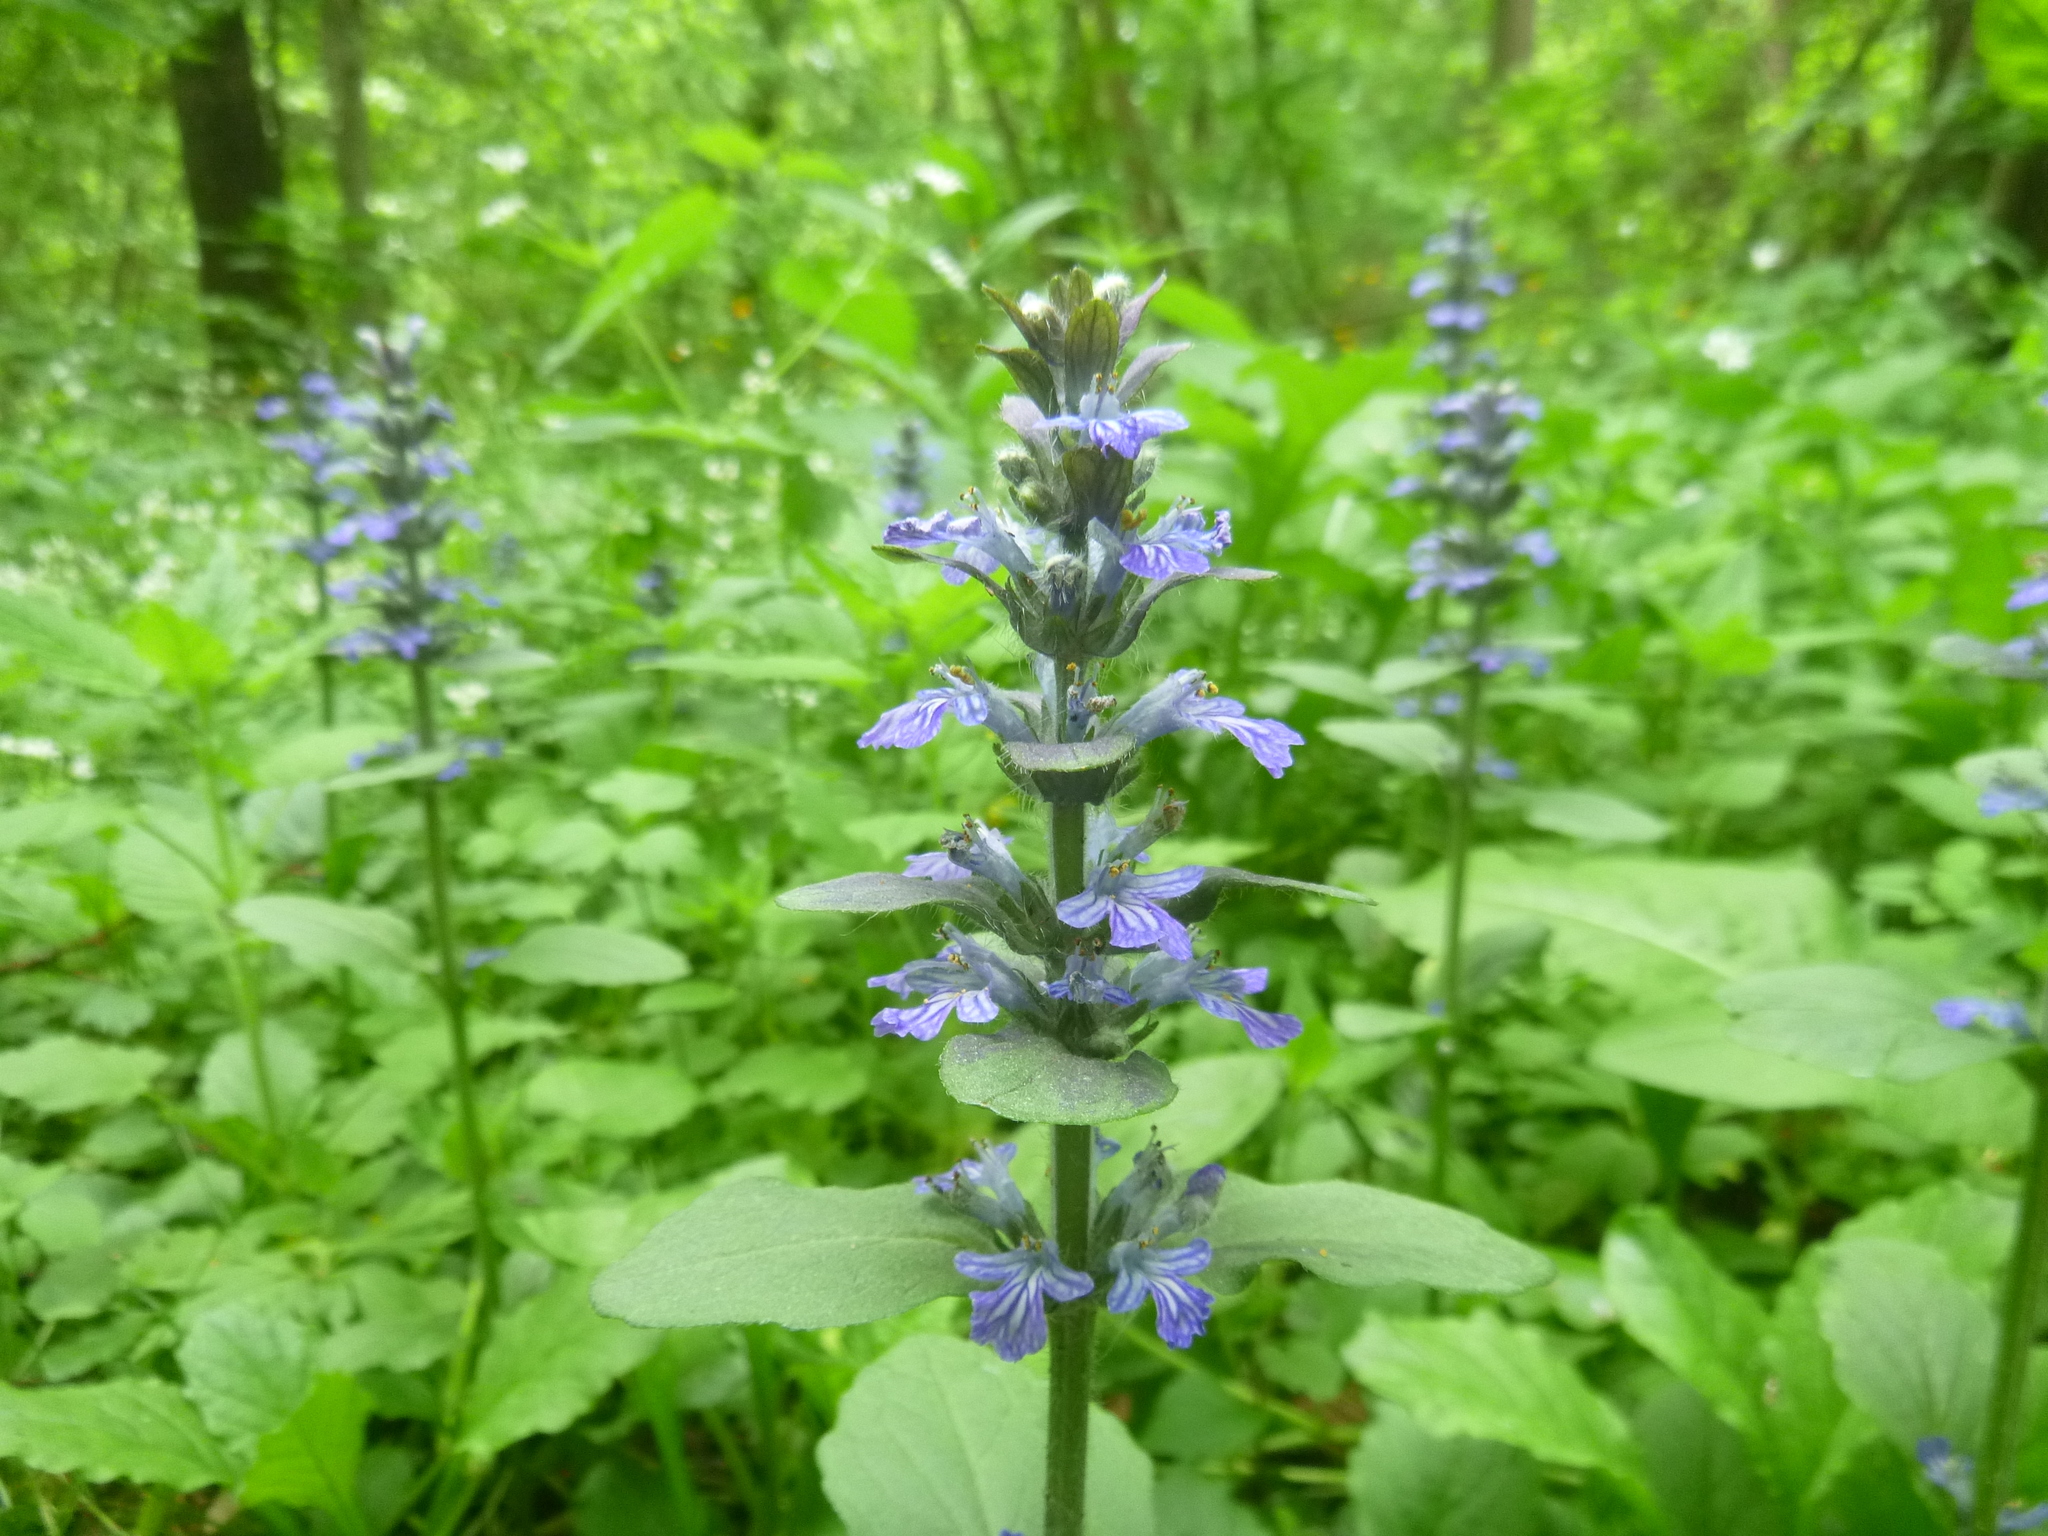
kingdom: Plantae
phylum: Tracheophyta
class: Magnoliopsida
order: Lamiales
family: Lamiaceae
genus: Ajuga
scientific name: Ajuga reptans
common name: Bugle
